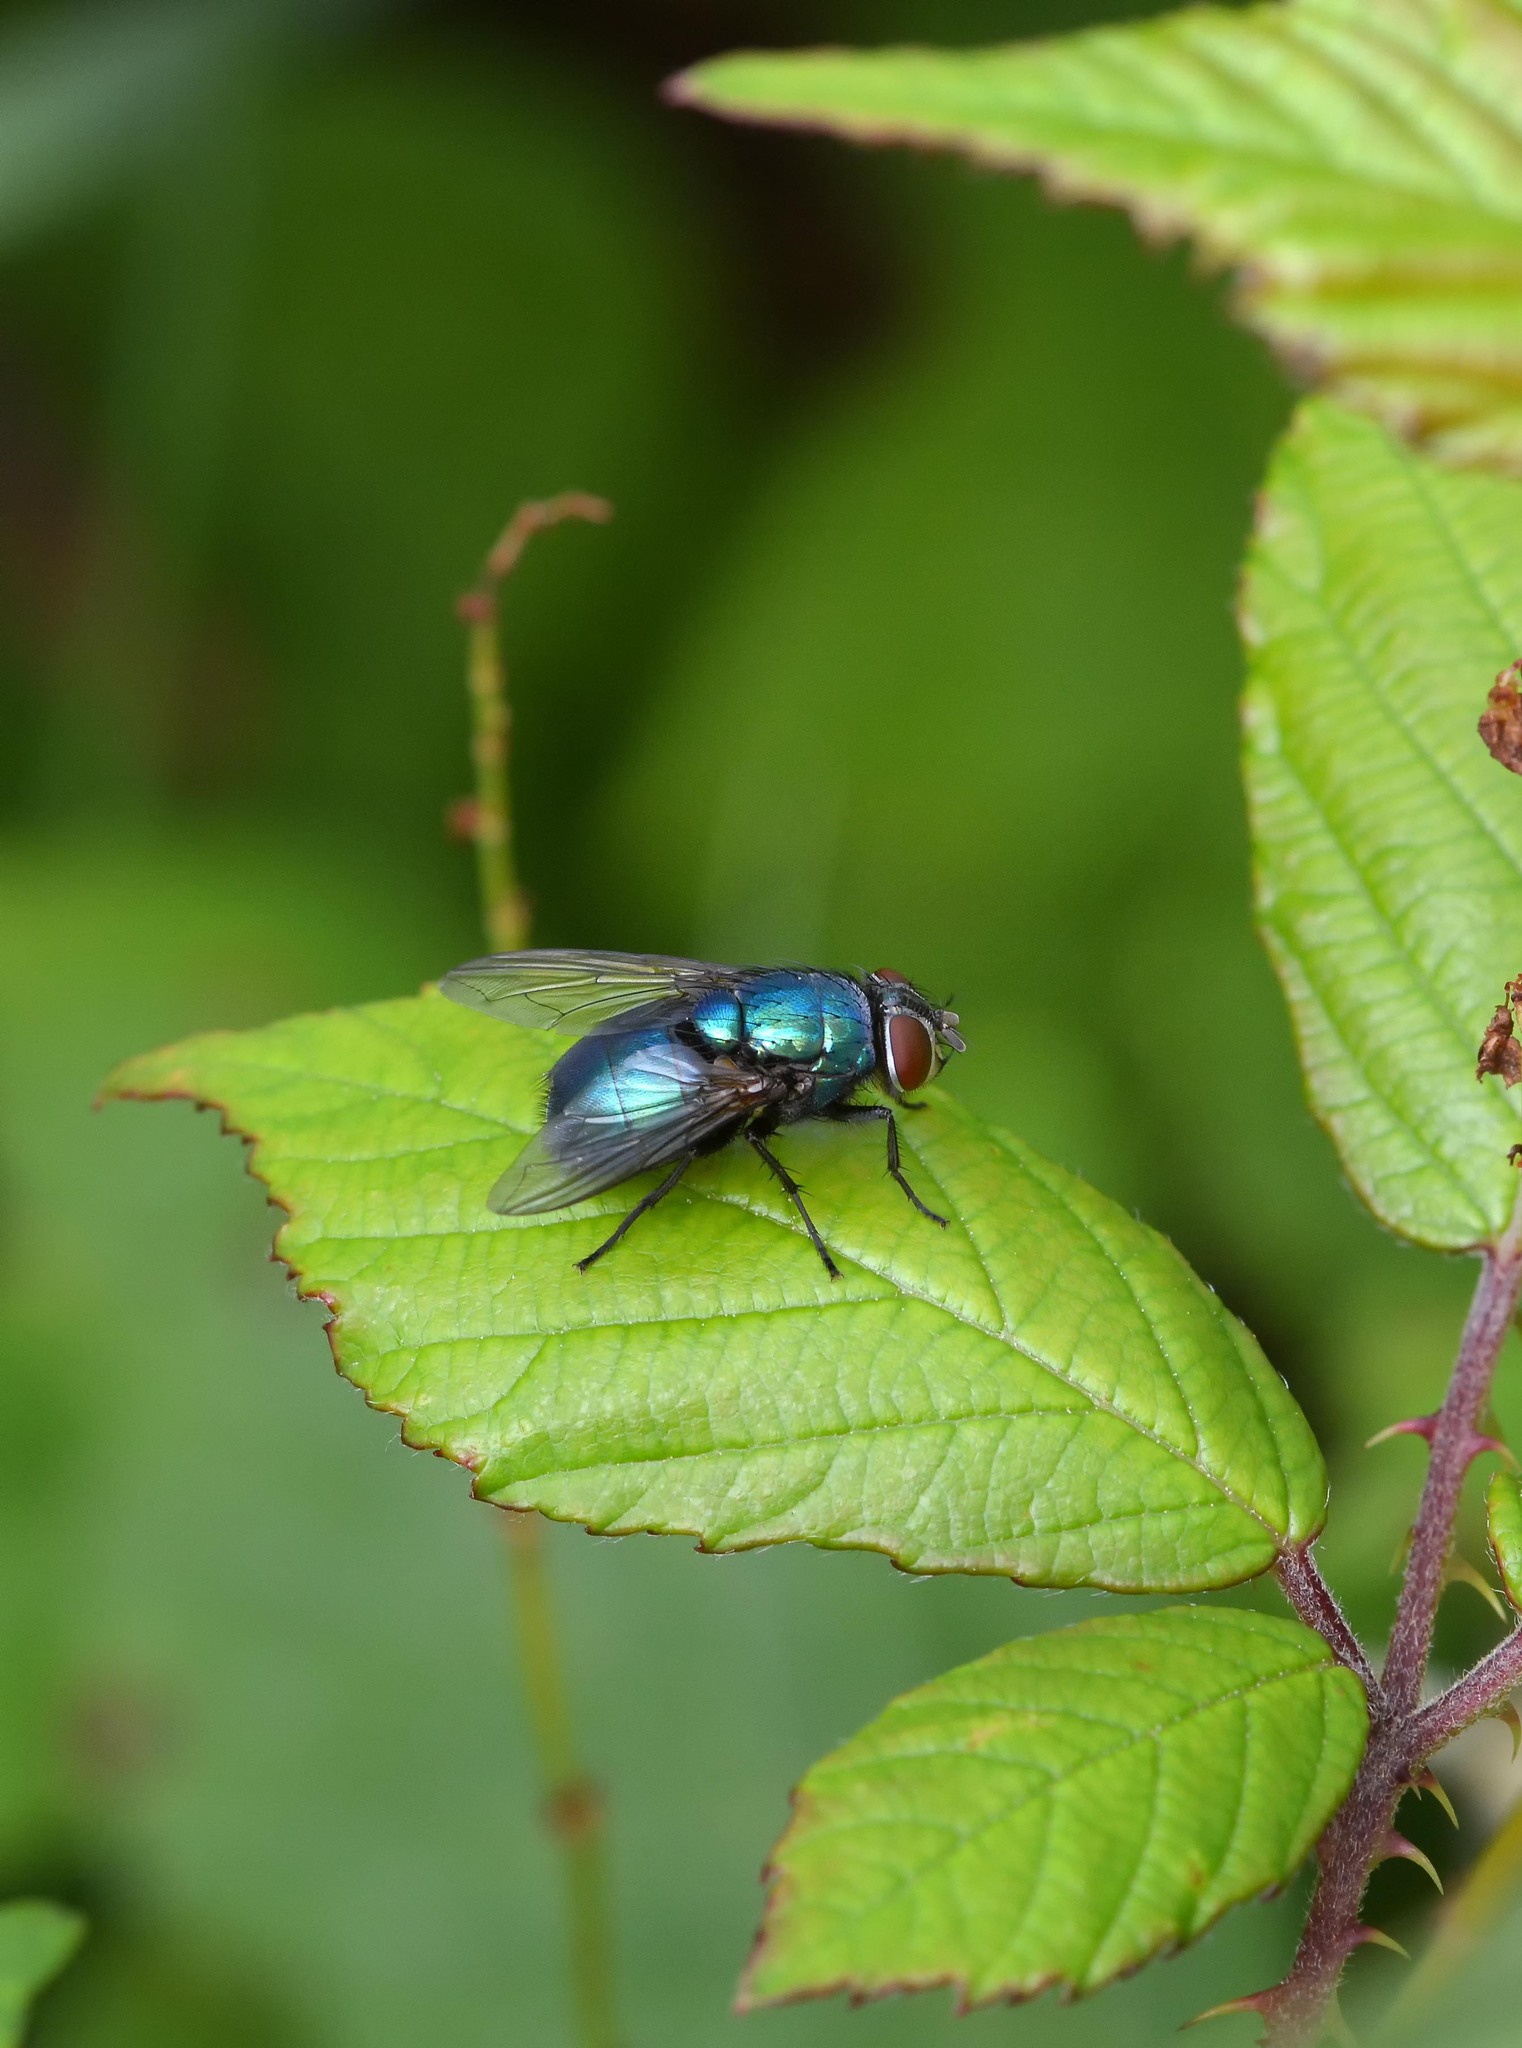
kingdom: Animalia
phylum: Arthropoda
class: Insecta
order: Diptera
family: Calliphoridae
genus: Lucilia
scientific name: Lucilia
